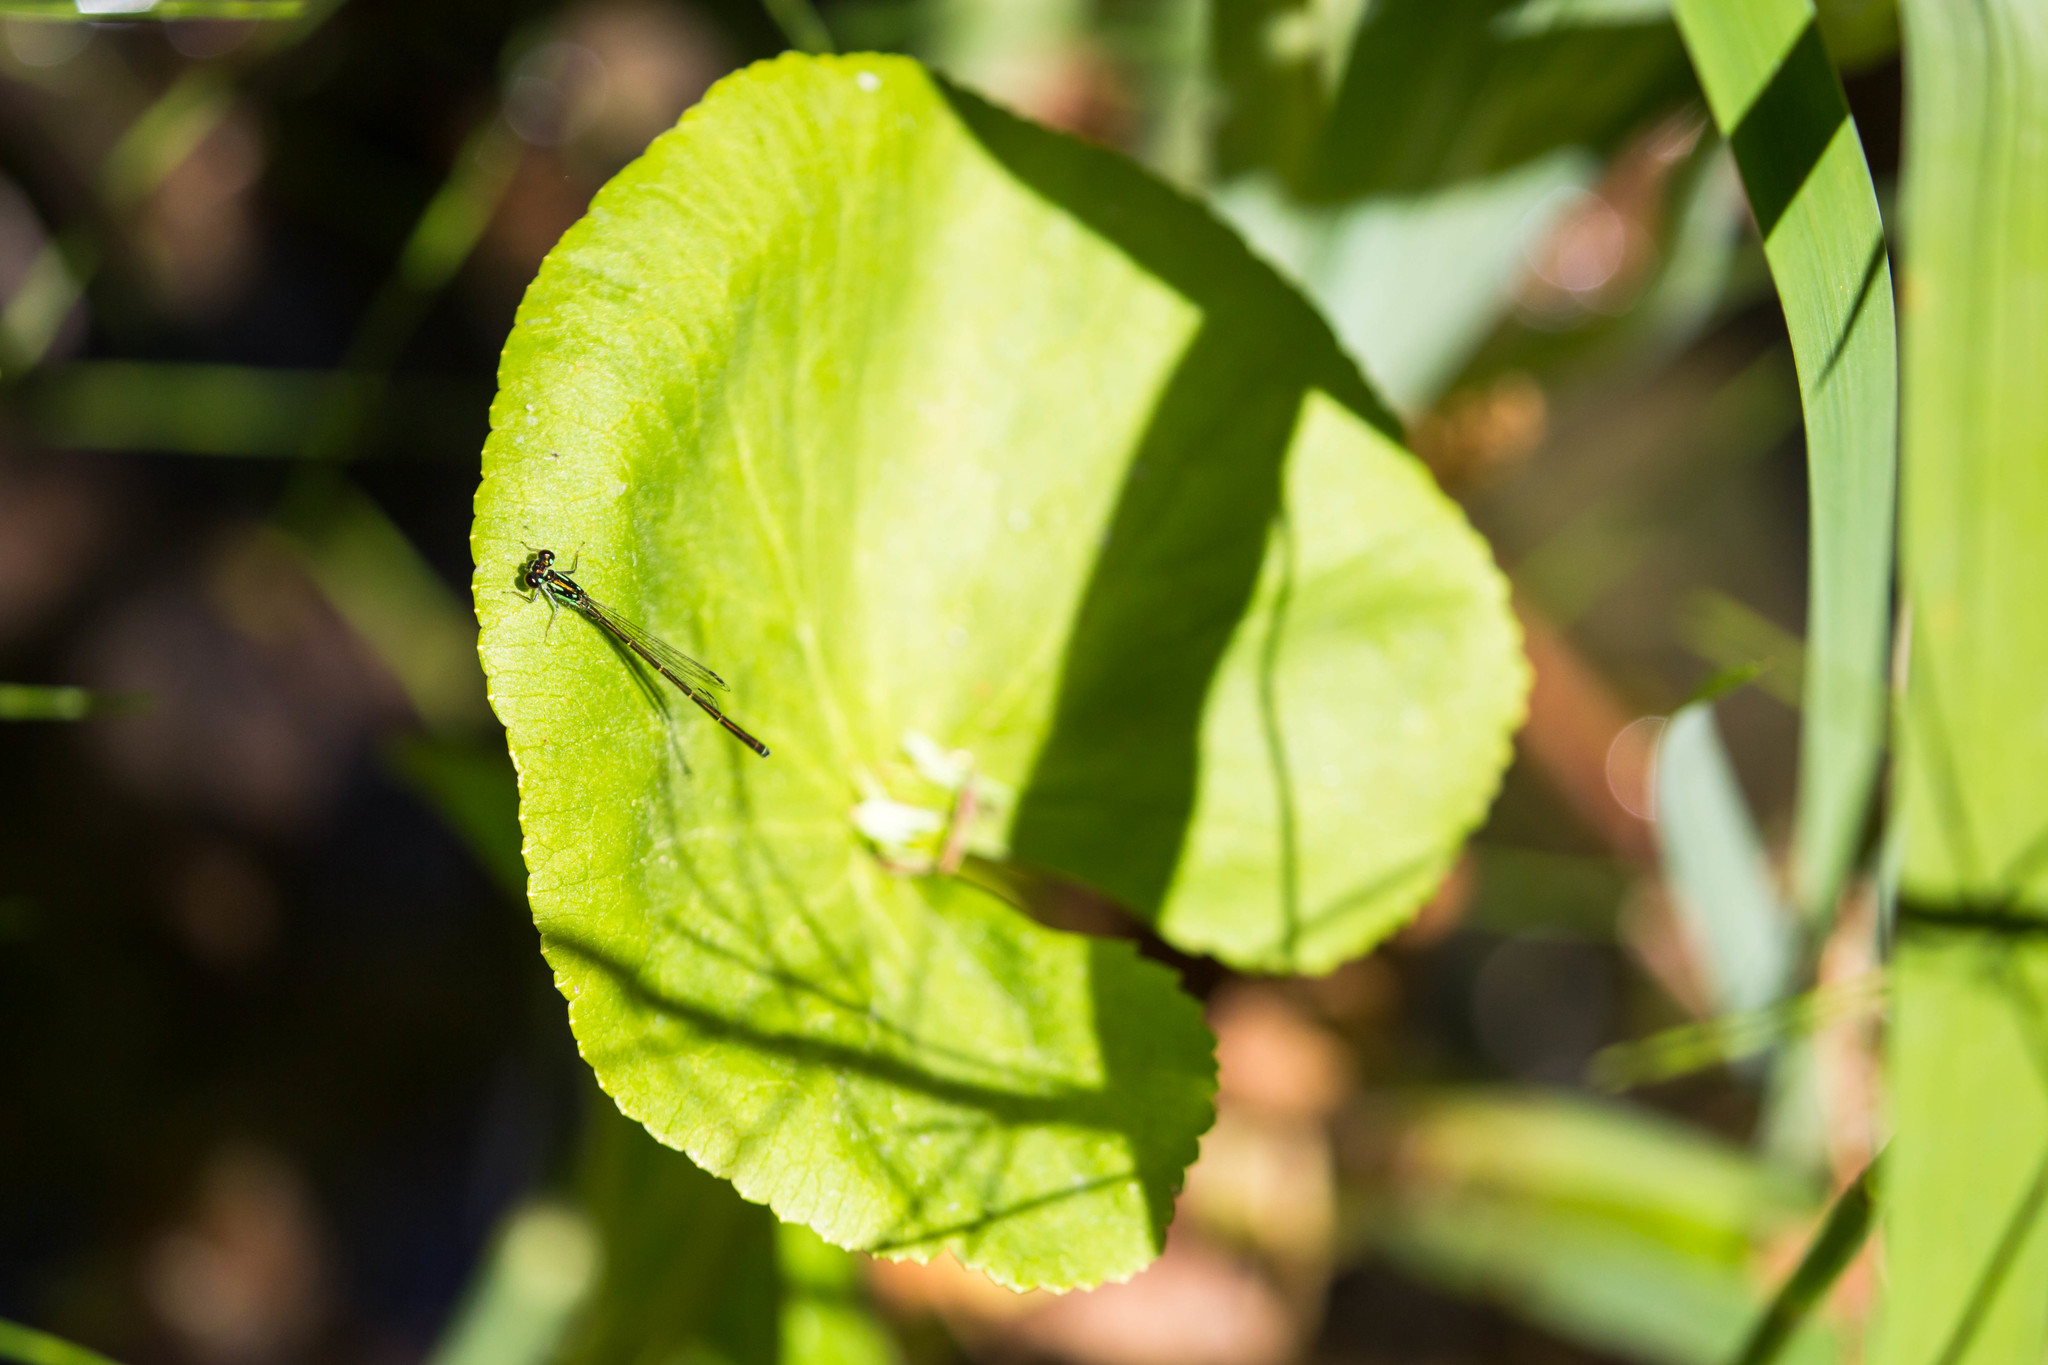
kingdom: Animalia
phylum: Arthropoda
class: Insecta
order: Odonata
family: Coenagrionidae
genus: Ischnura
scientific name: Ischnura posita
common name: Fragile forktail
